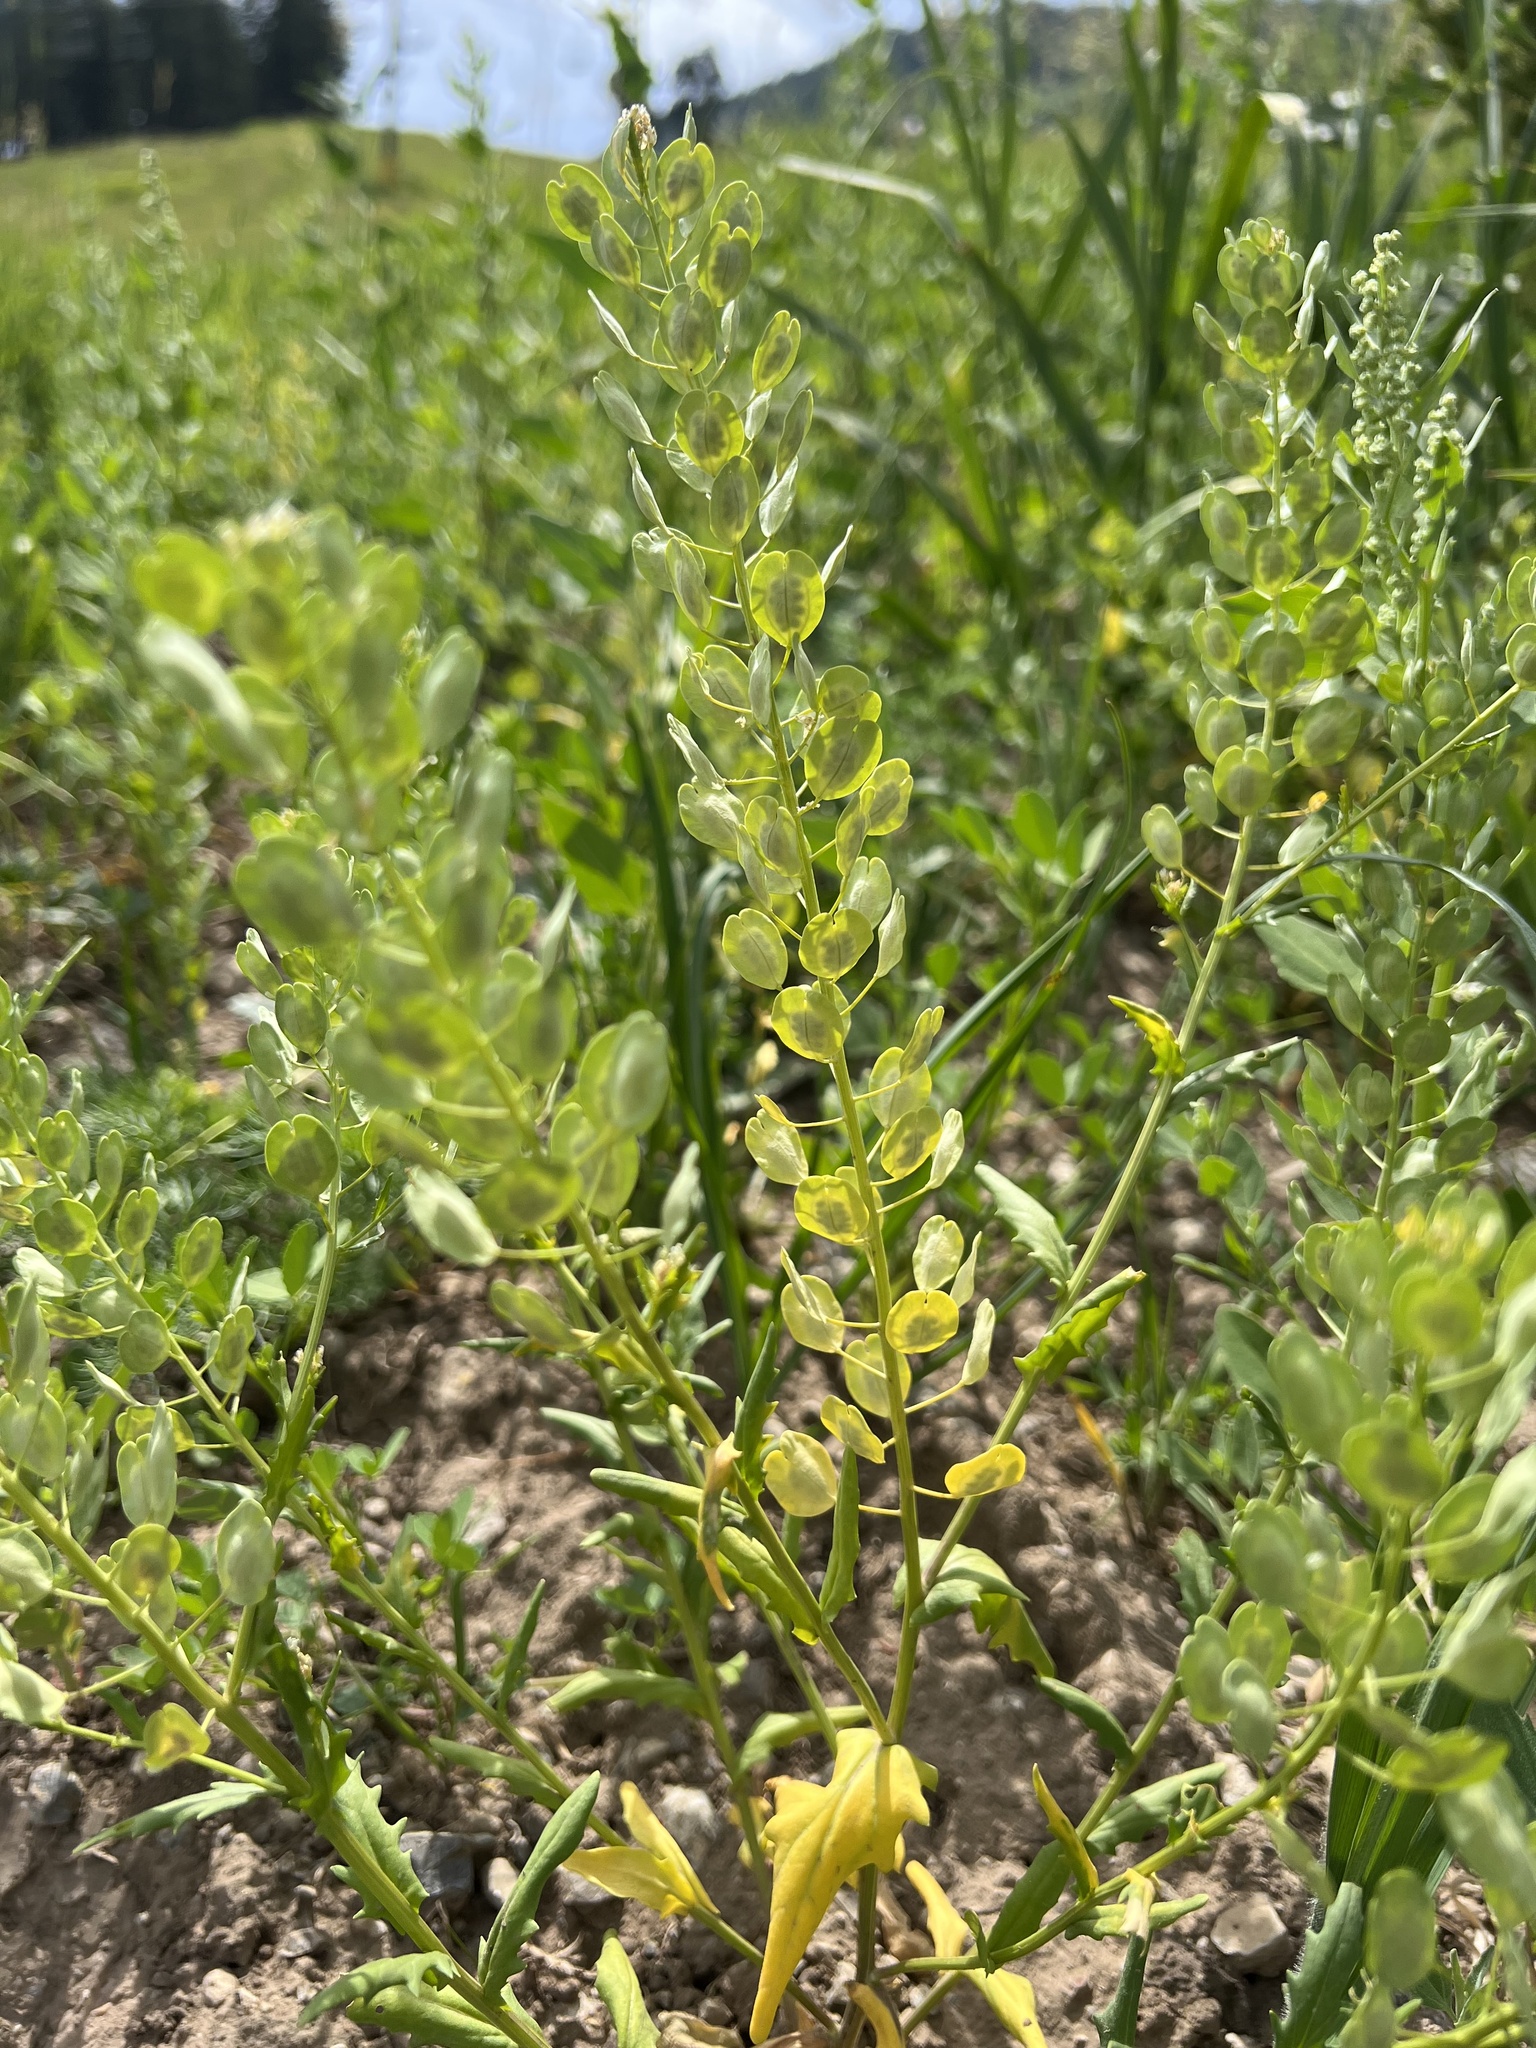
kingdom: Plantae
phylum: Tracheophyta
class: Magnoliopsida
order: Brassicales
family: Brassicaceae
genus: Thlaspi
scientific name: Thlaspi arvense
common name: Field pennycress
